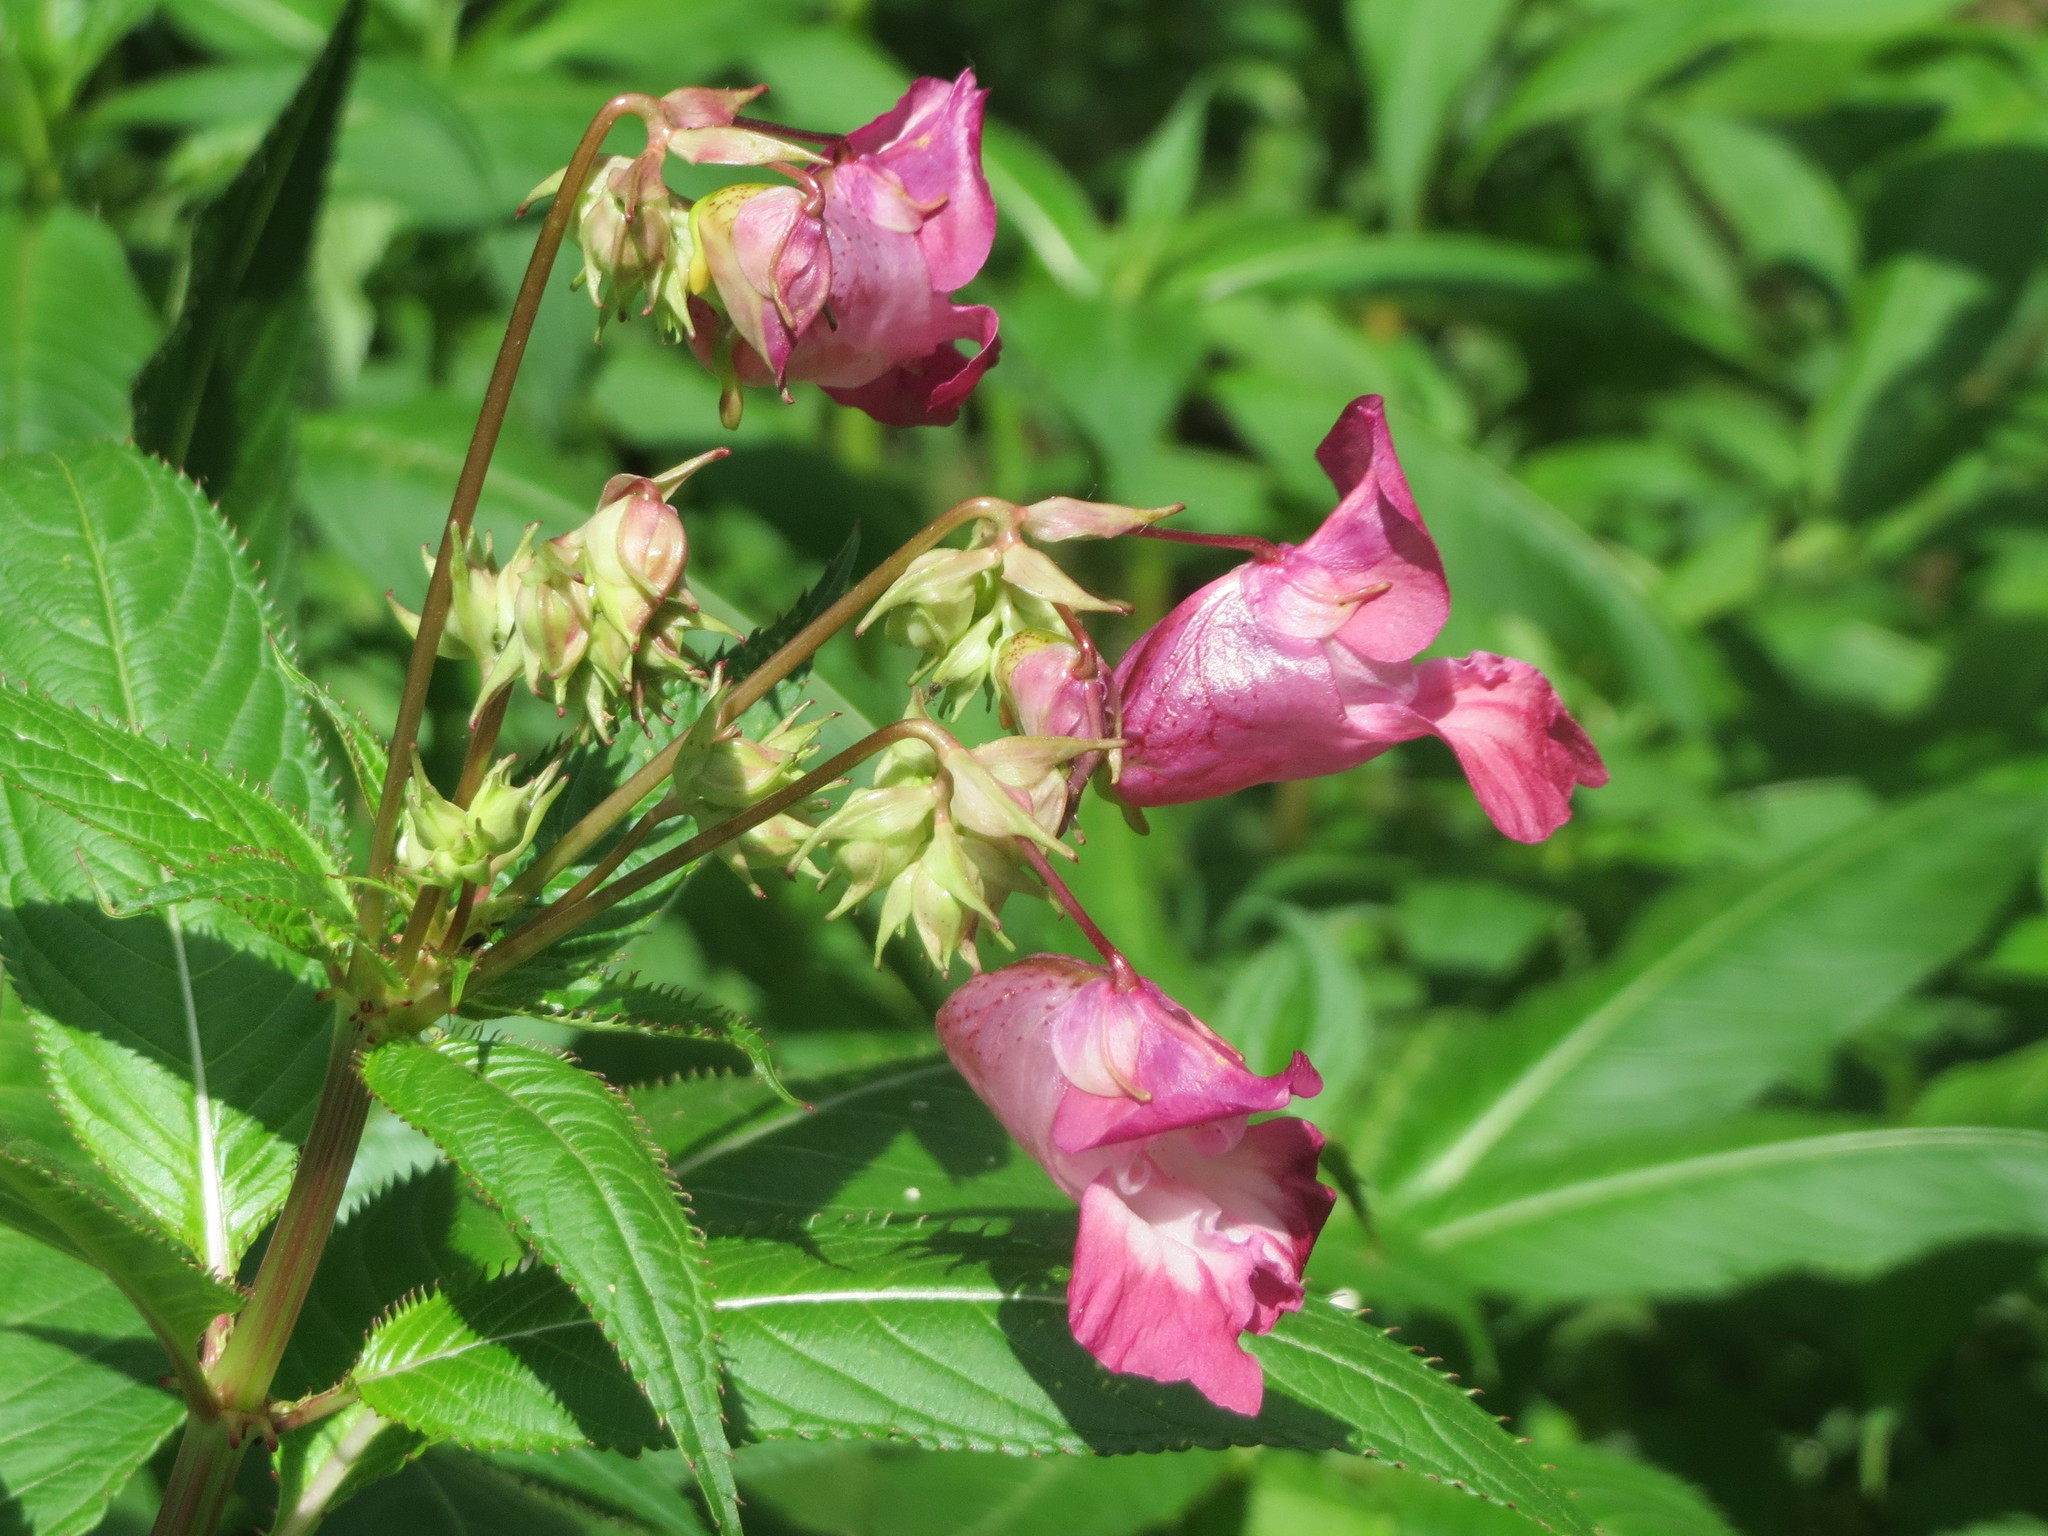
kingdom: Plantae
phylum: Tracheophyta
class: Magnoliopsida
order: Ericales
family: Balsaminaceae
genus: Impatiens
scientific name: Impatiens glandulifera
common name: Himalayan balsam
